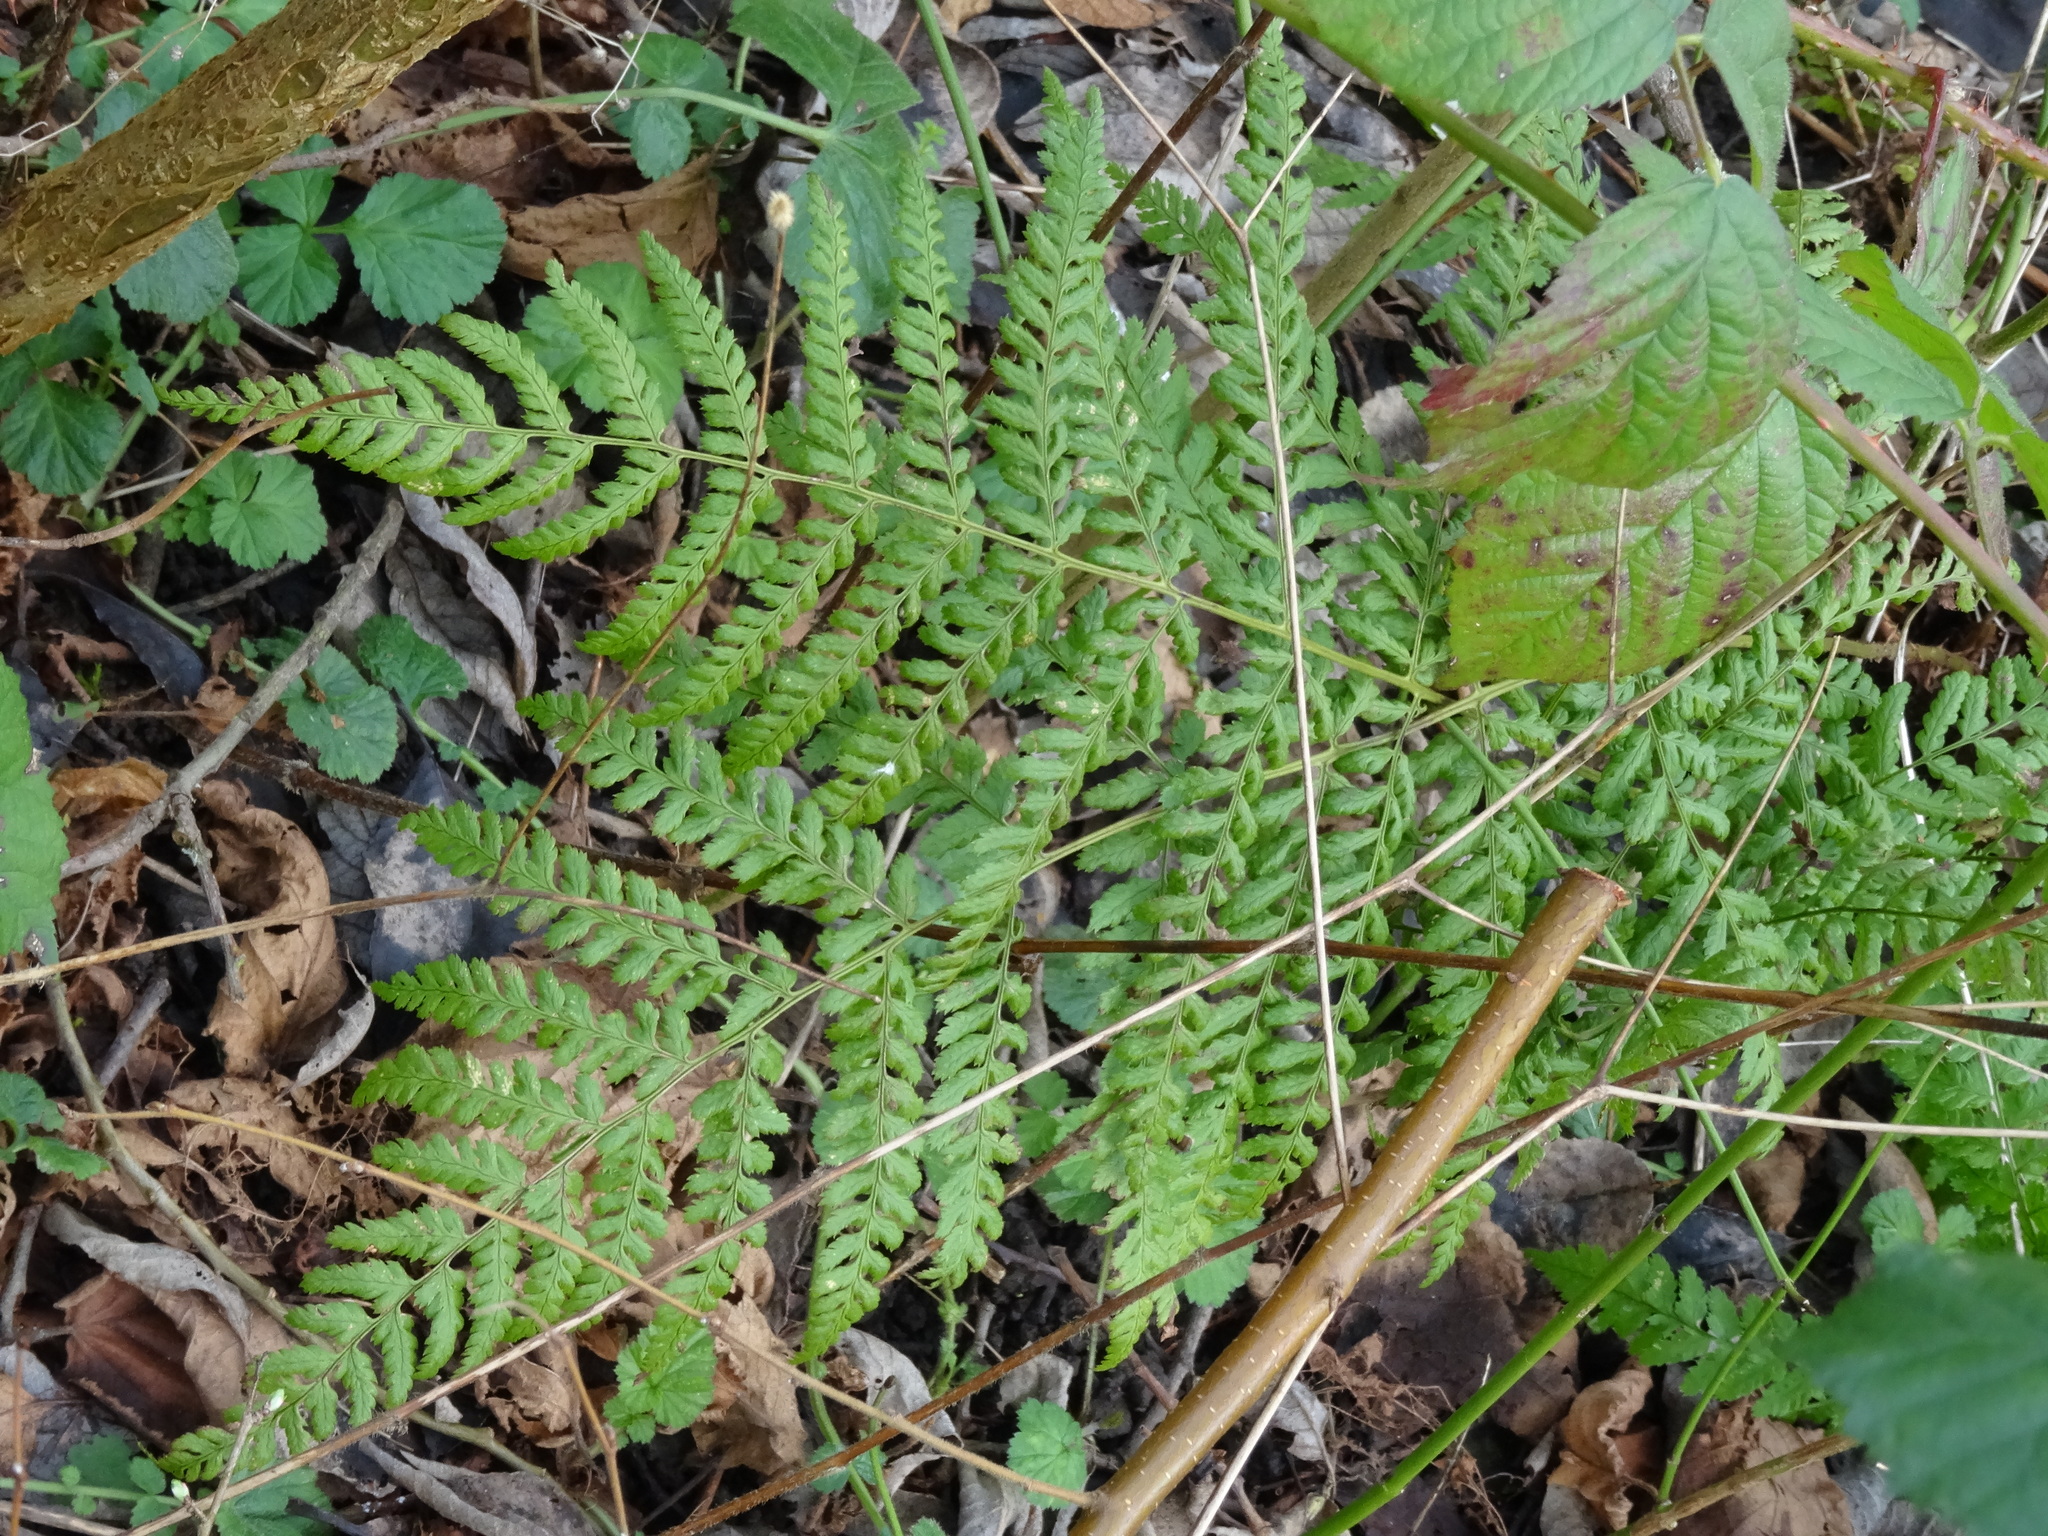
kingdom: Plantae
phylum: Tracheophyta
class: Polypodiopsida
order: Polypodiales
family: Dennstaedtiaceae
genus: Pteridium
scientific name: Pteridium aquilinum
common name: Bracken
